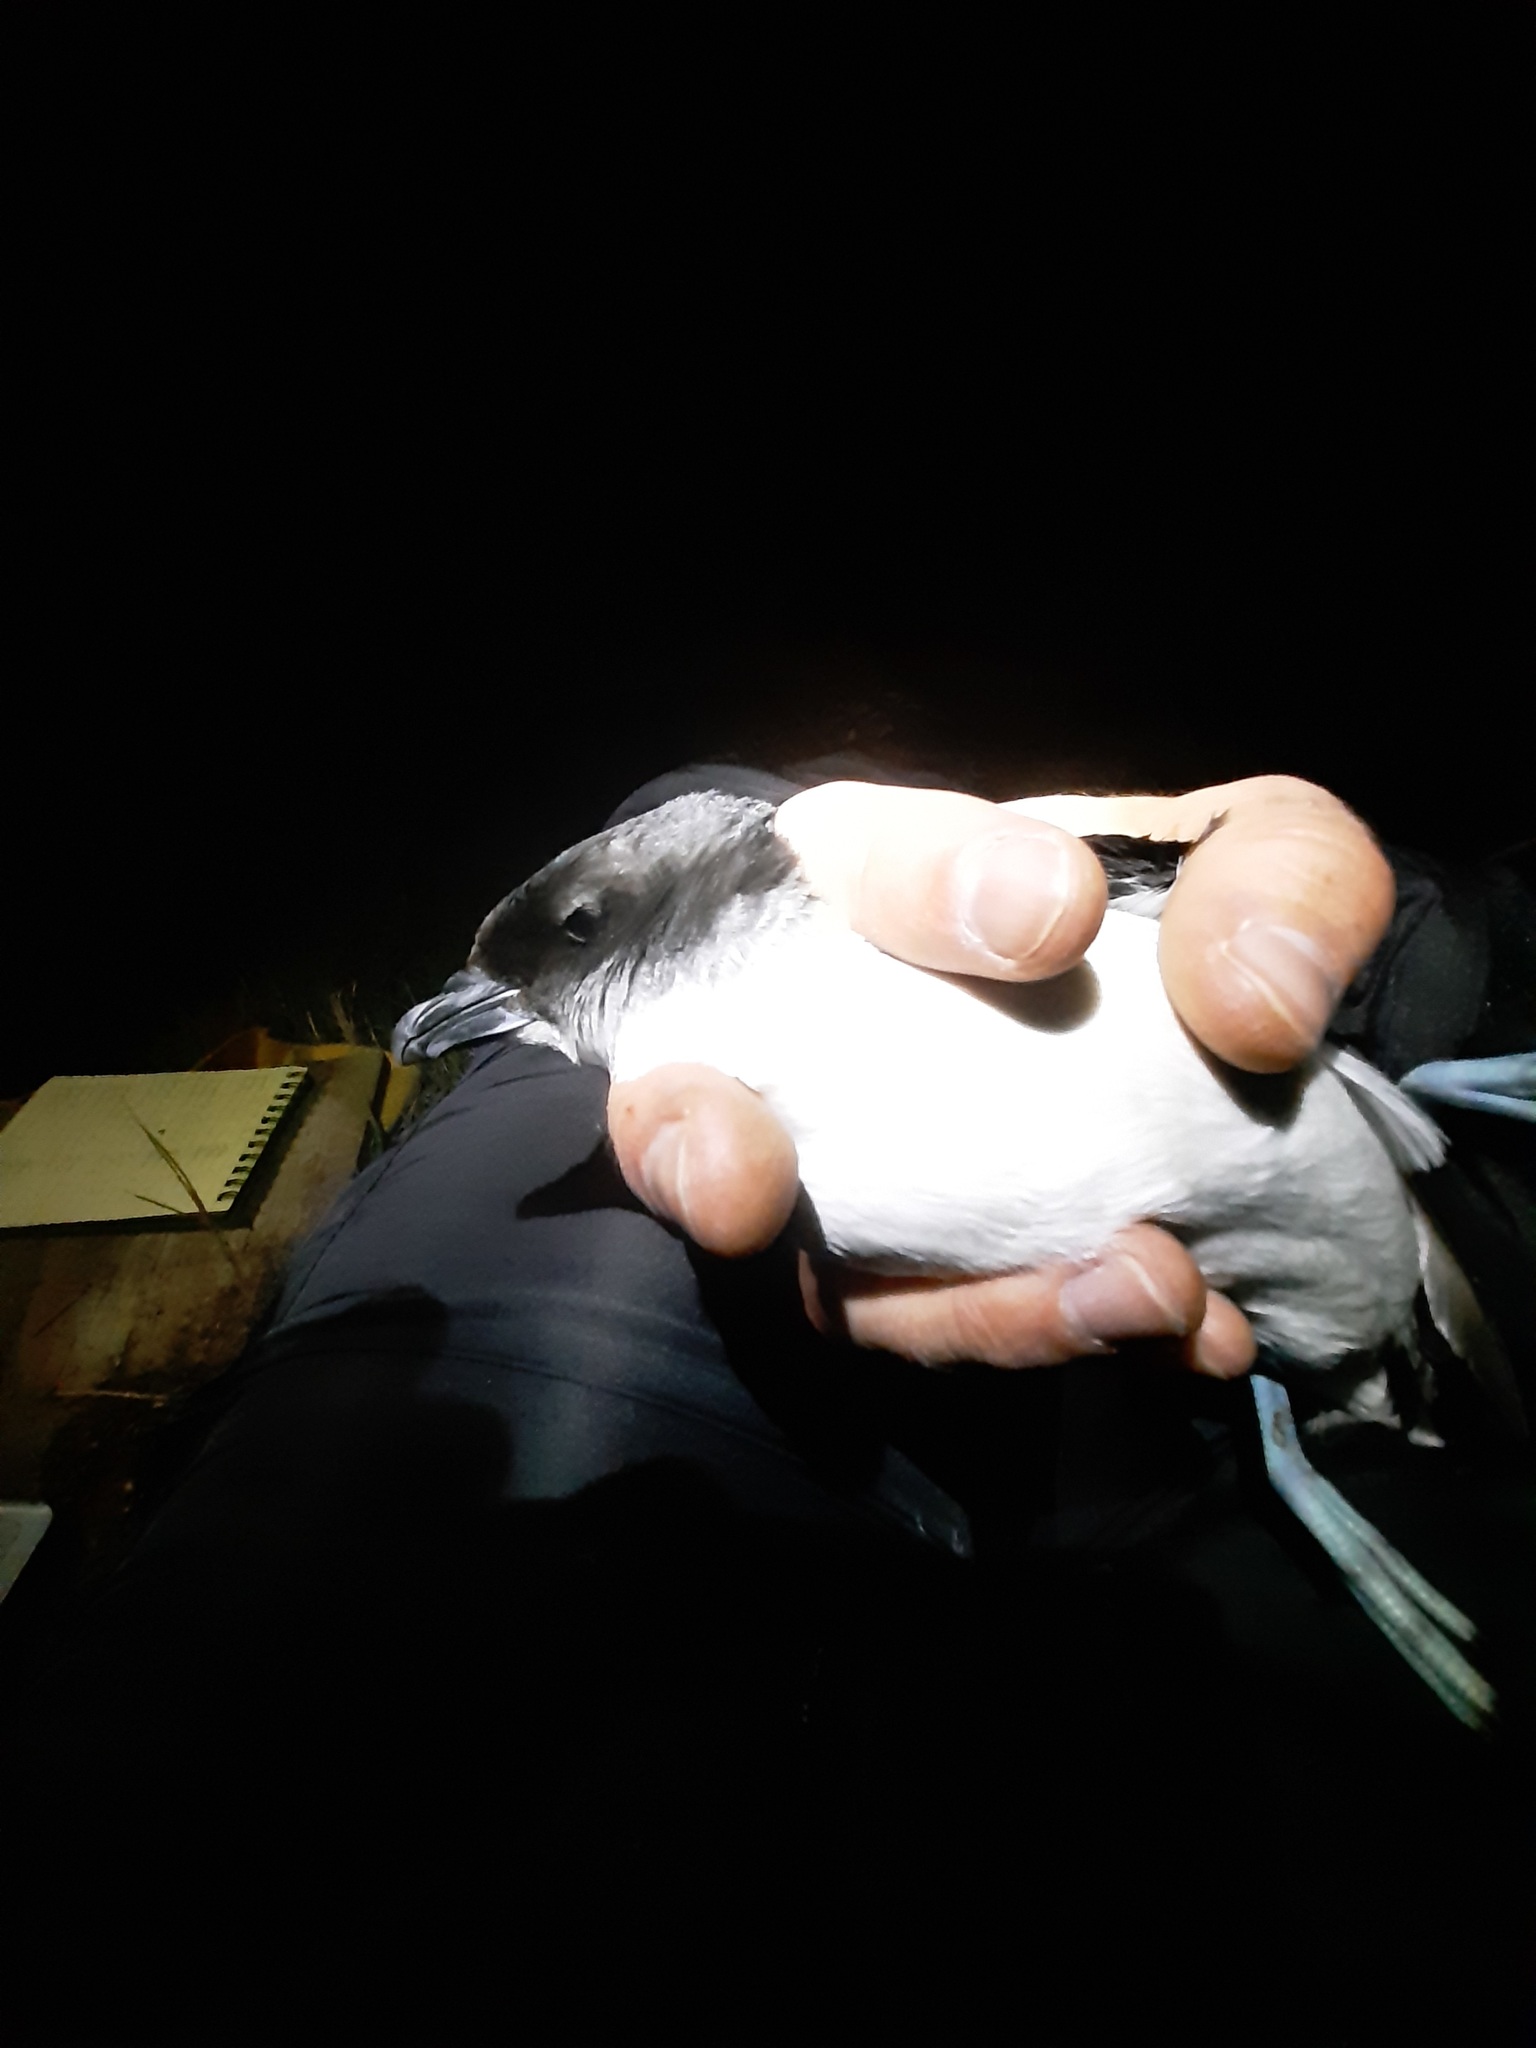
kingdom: Animalia
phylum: Chordata
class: Aves
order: Procellariiformes
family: Pelecanoididae
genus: Pelecanoides
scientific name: Pelecanoides urinatrix
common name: Common diving-petrel
